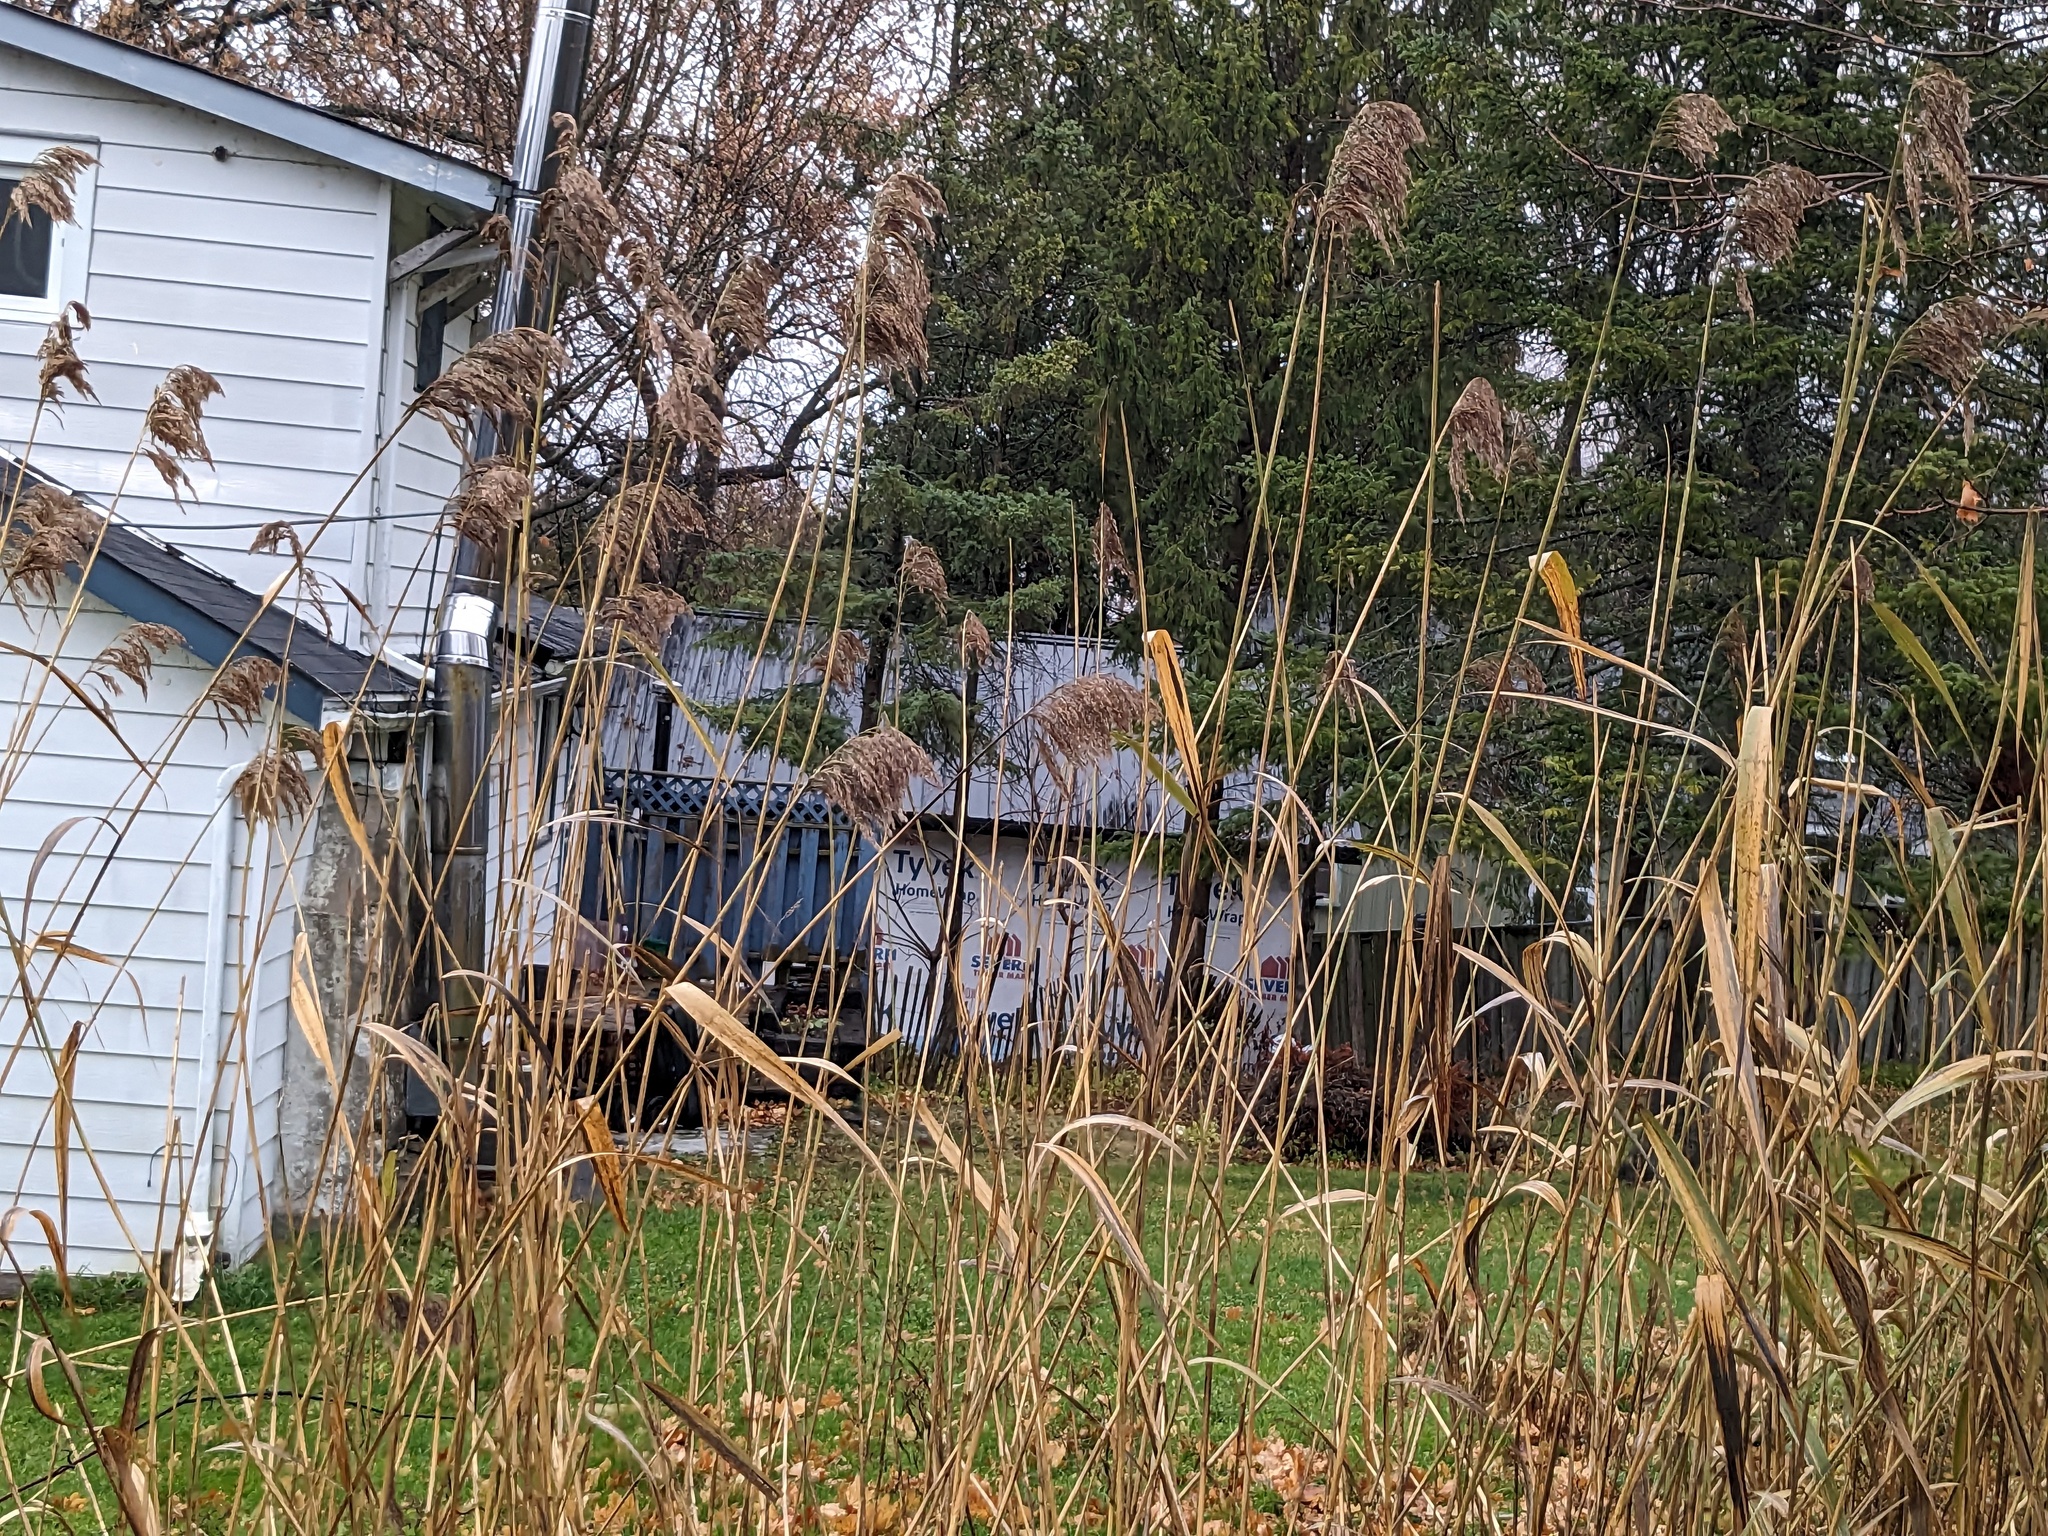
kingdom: Plantae
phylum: Tracheophyta
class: Liliopsida
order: Poales
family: Poaceae
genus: Phragmites
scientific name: Phragmites australis
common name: Common reed
